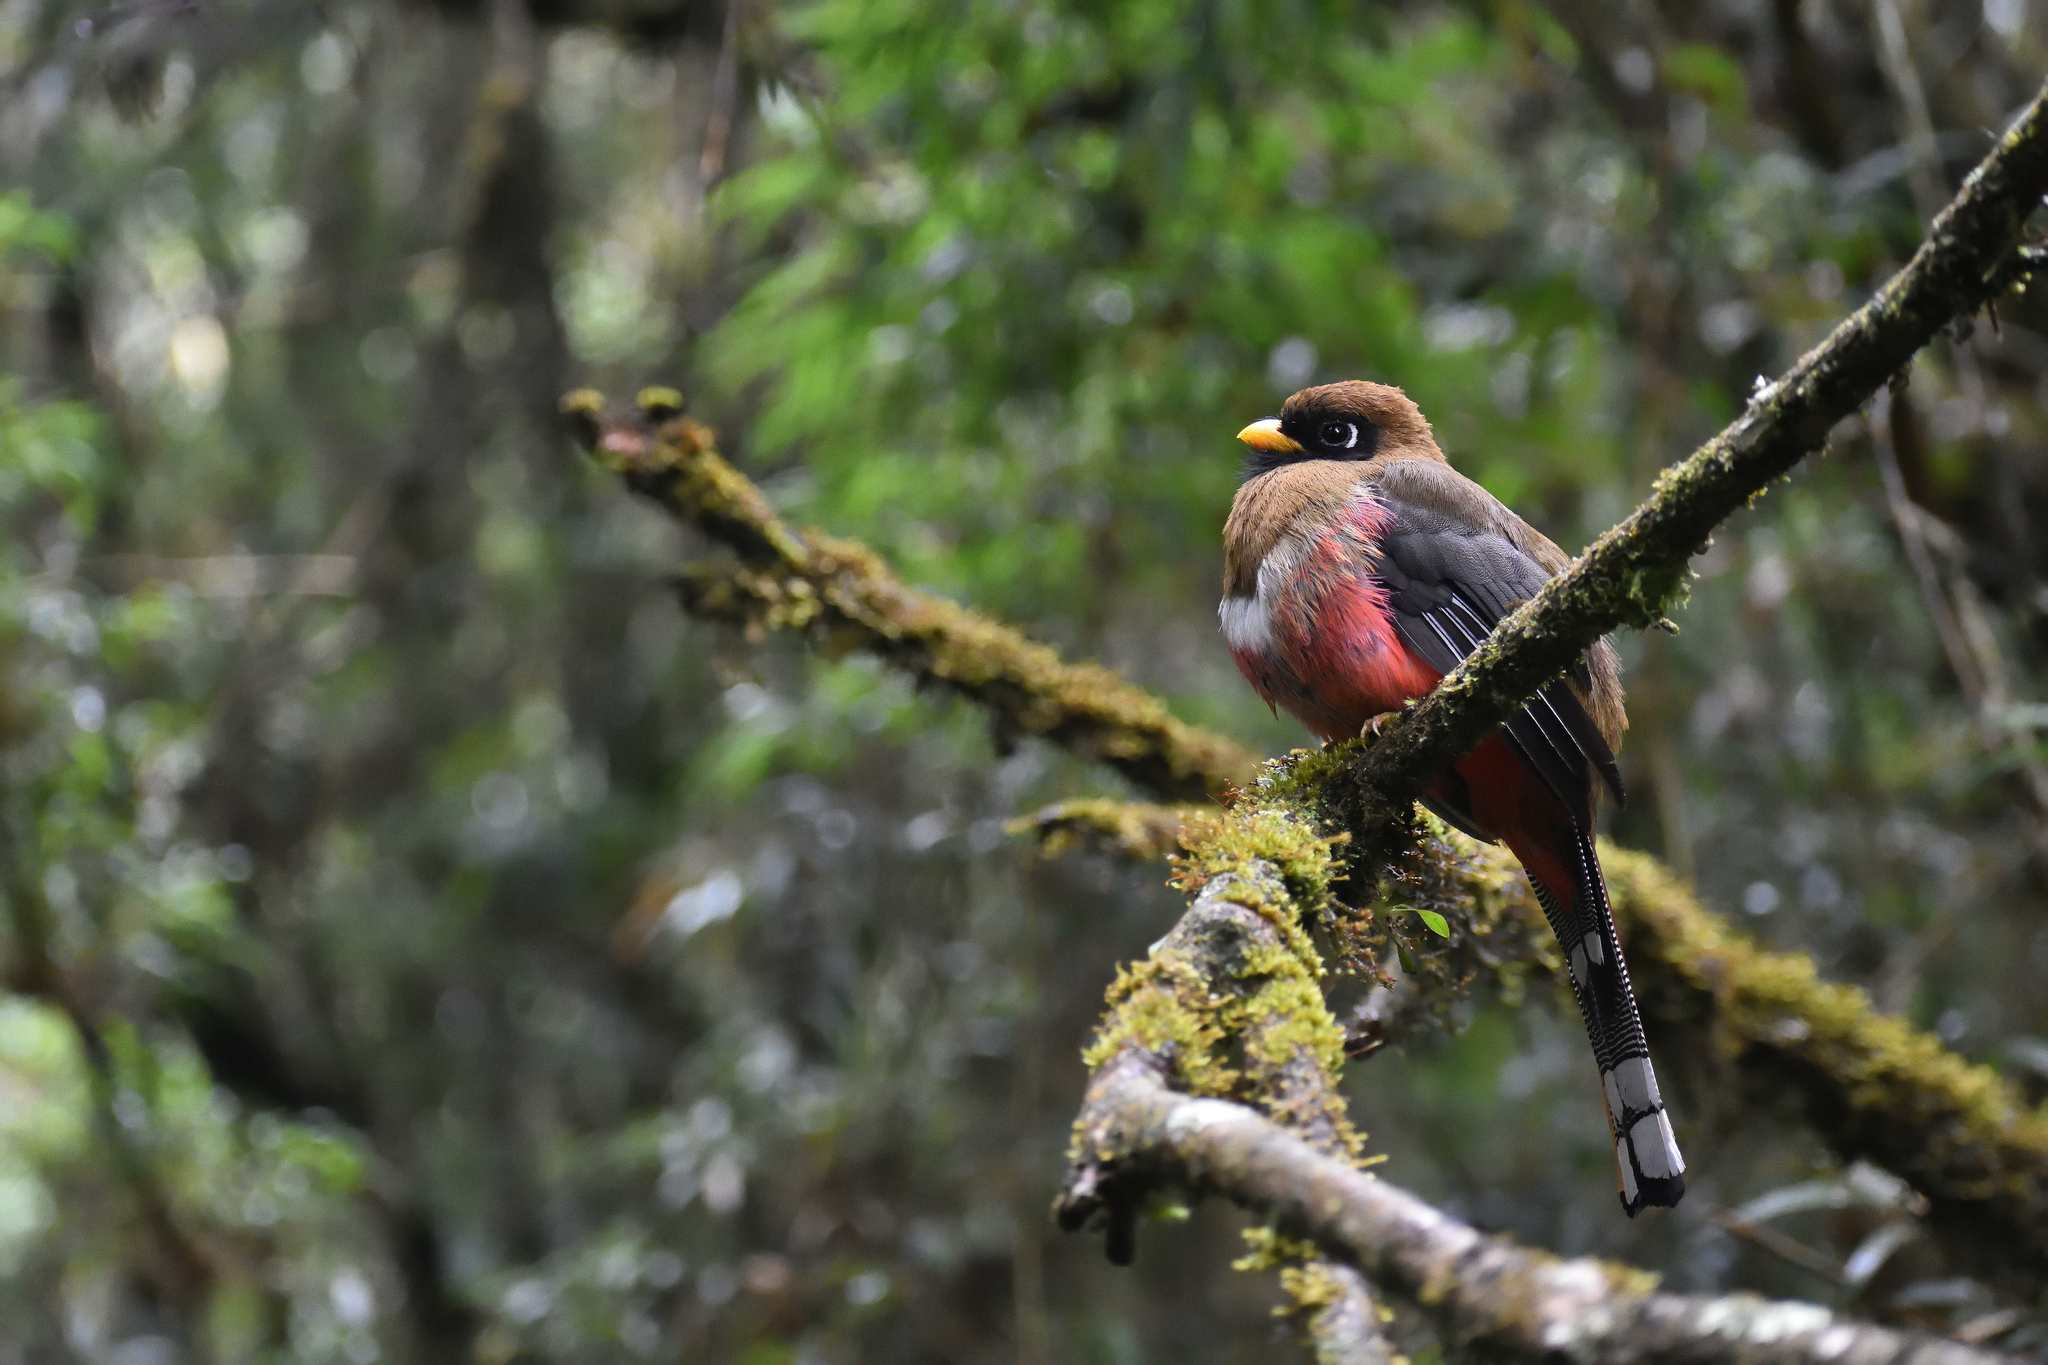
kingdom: Animalia
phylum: Chordata
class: Aves
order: Trogoniformes
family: Trogonidae
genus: Trogon
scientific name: Trogon personatus
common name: Masked trogon
